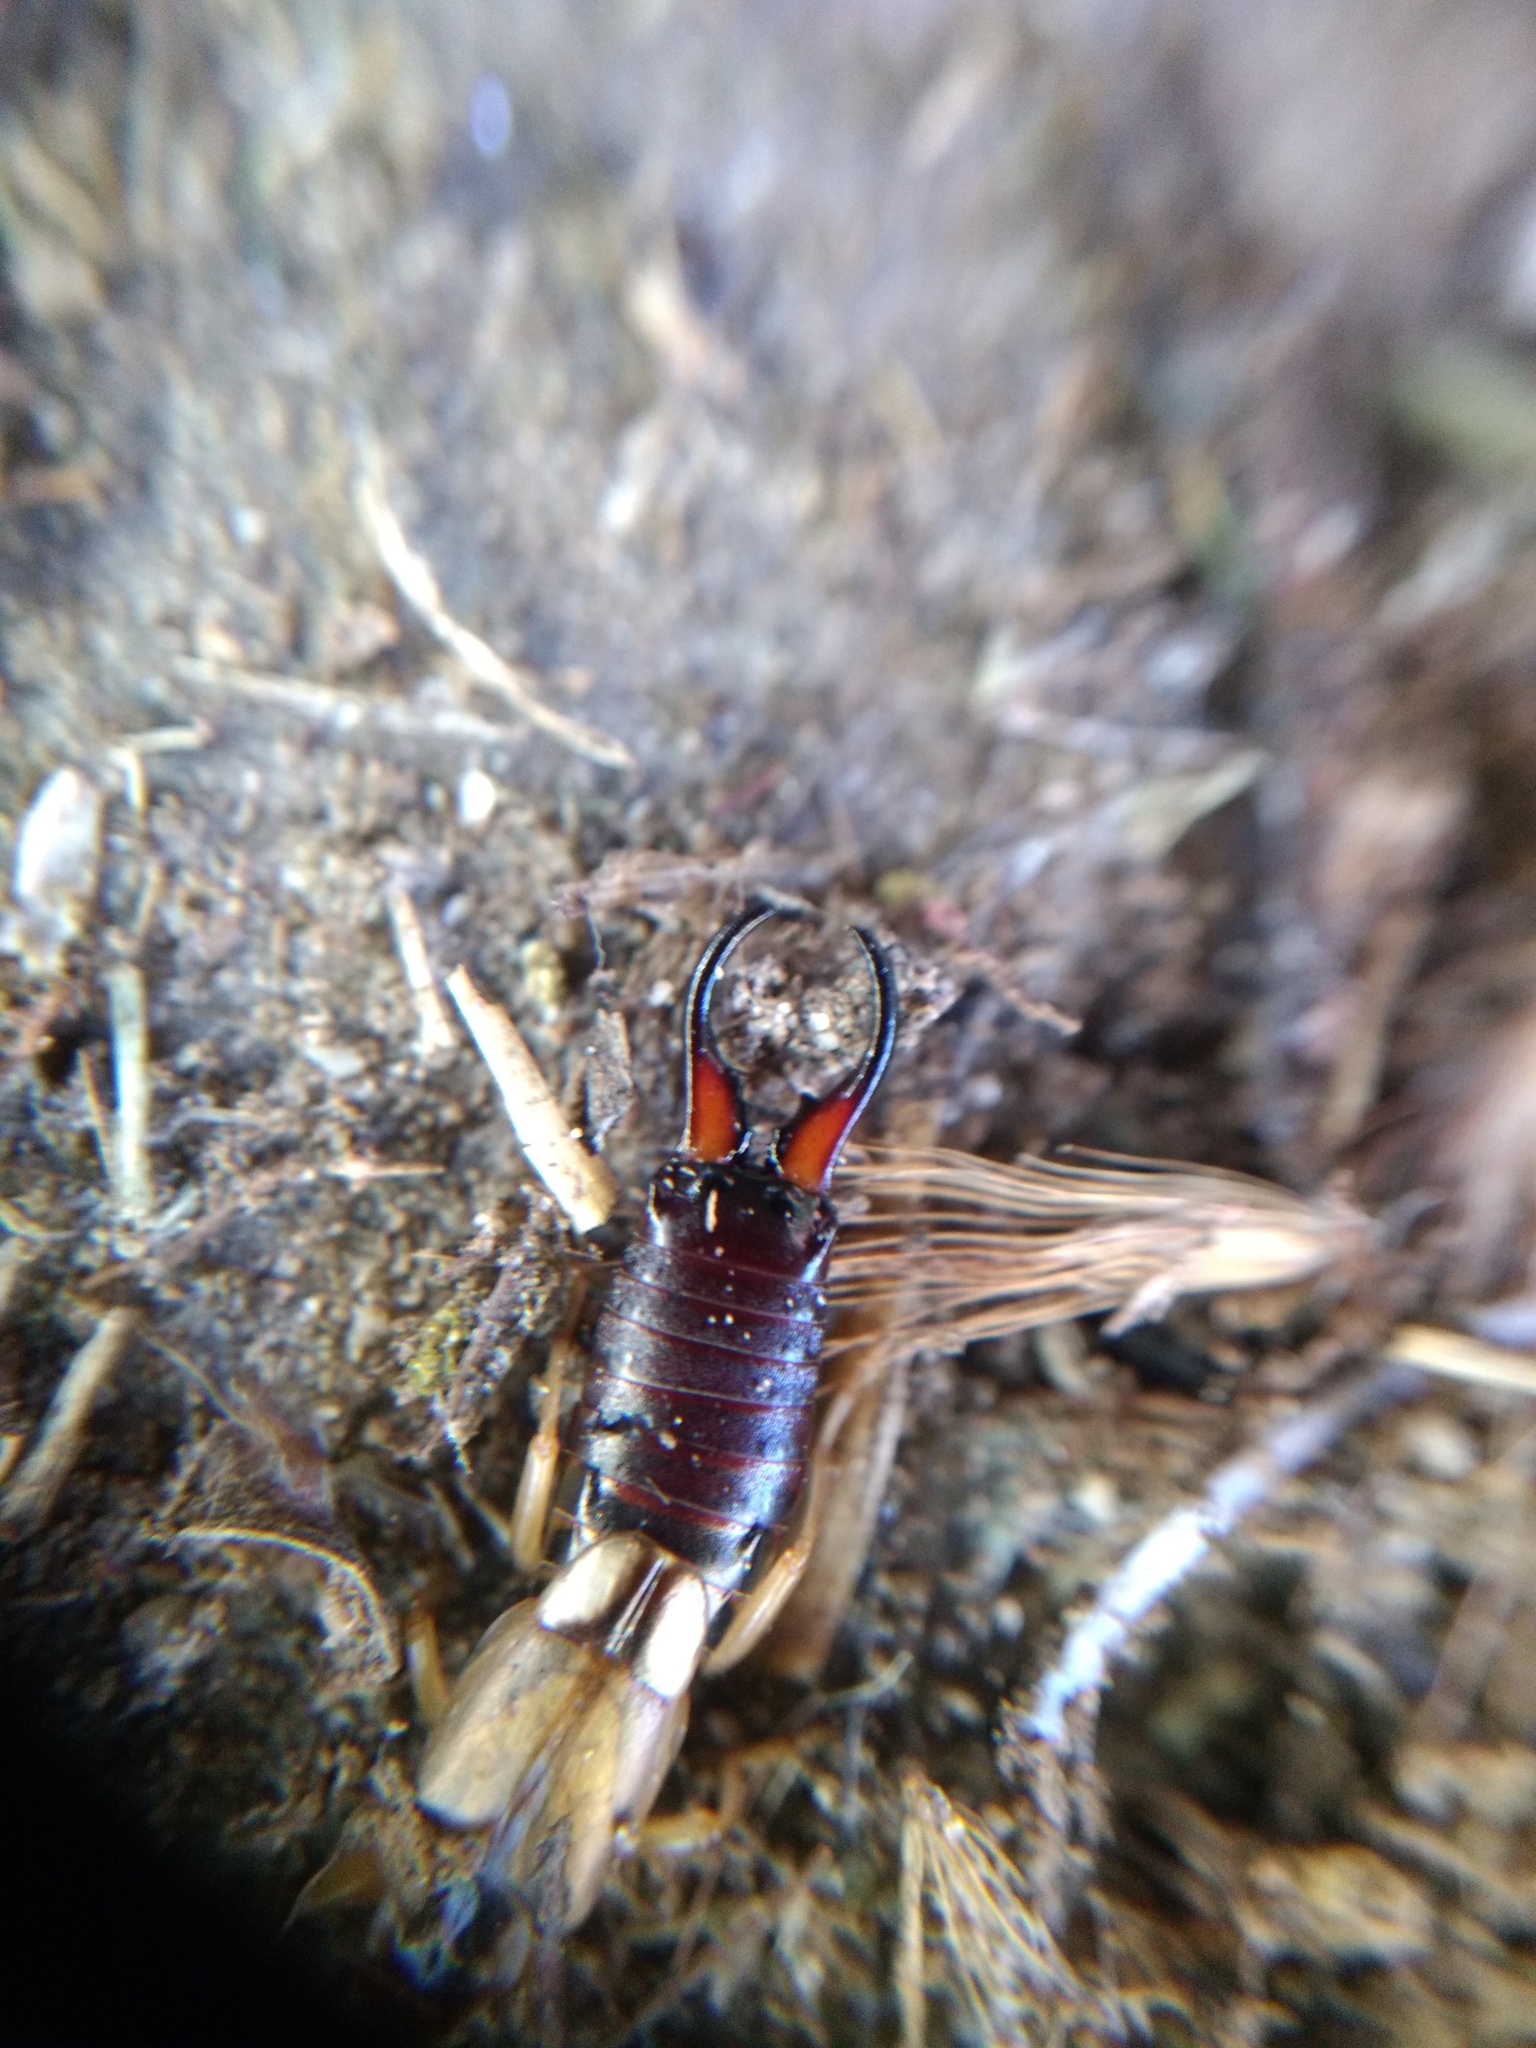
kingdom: Animalia
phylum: Arthropoda
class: Insecta
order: Dermaptera
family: Forficulidae
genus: Forficula
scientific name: Forficula
